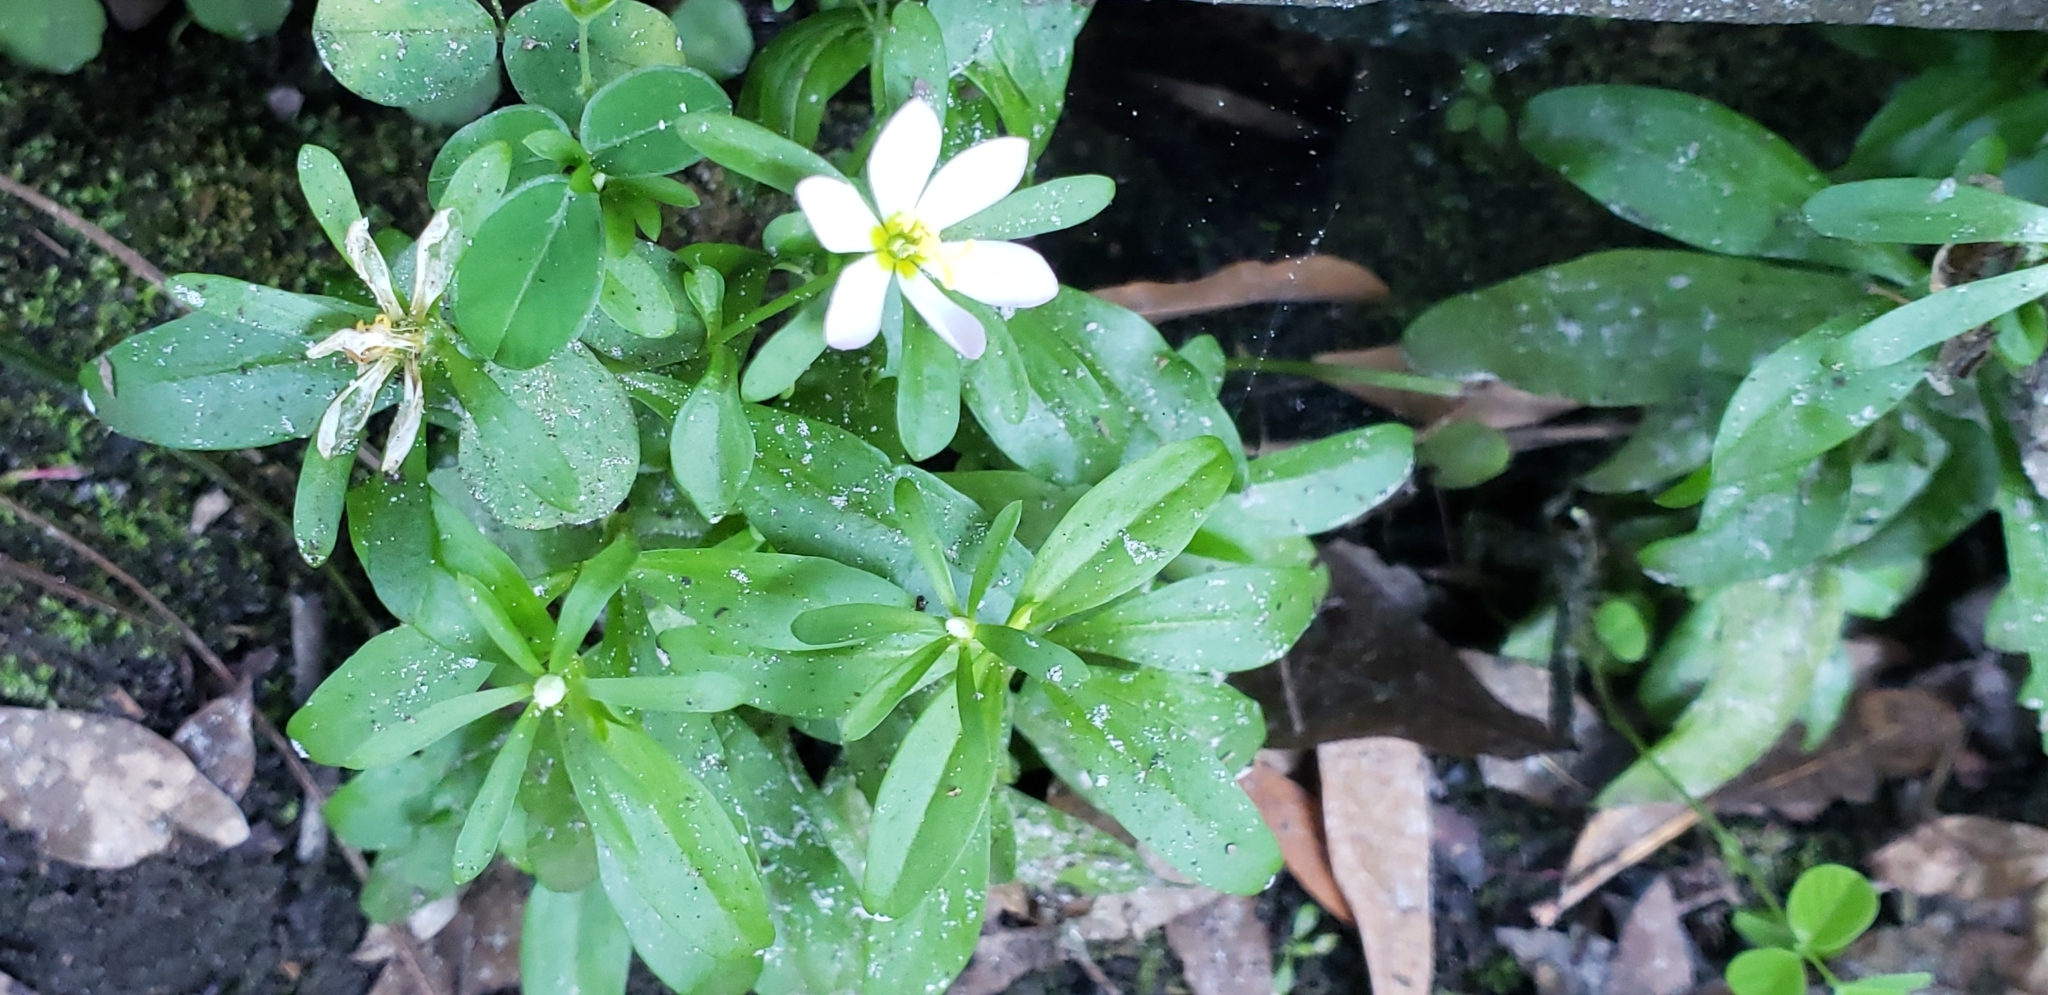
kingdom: Plantae
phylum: Tracheophyta
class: Magnoliopsida
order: Gentianales
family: Gentianaceae
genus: Sabatia
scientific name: Sabatia calycina
